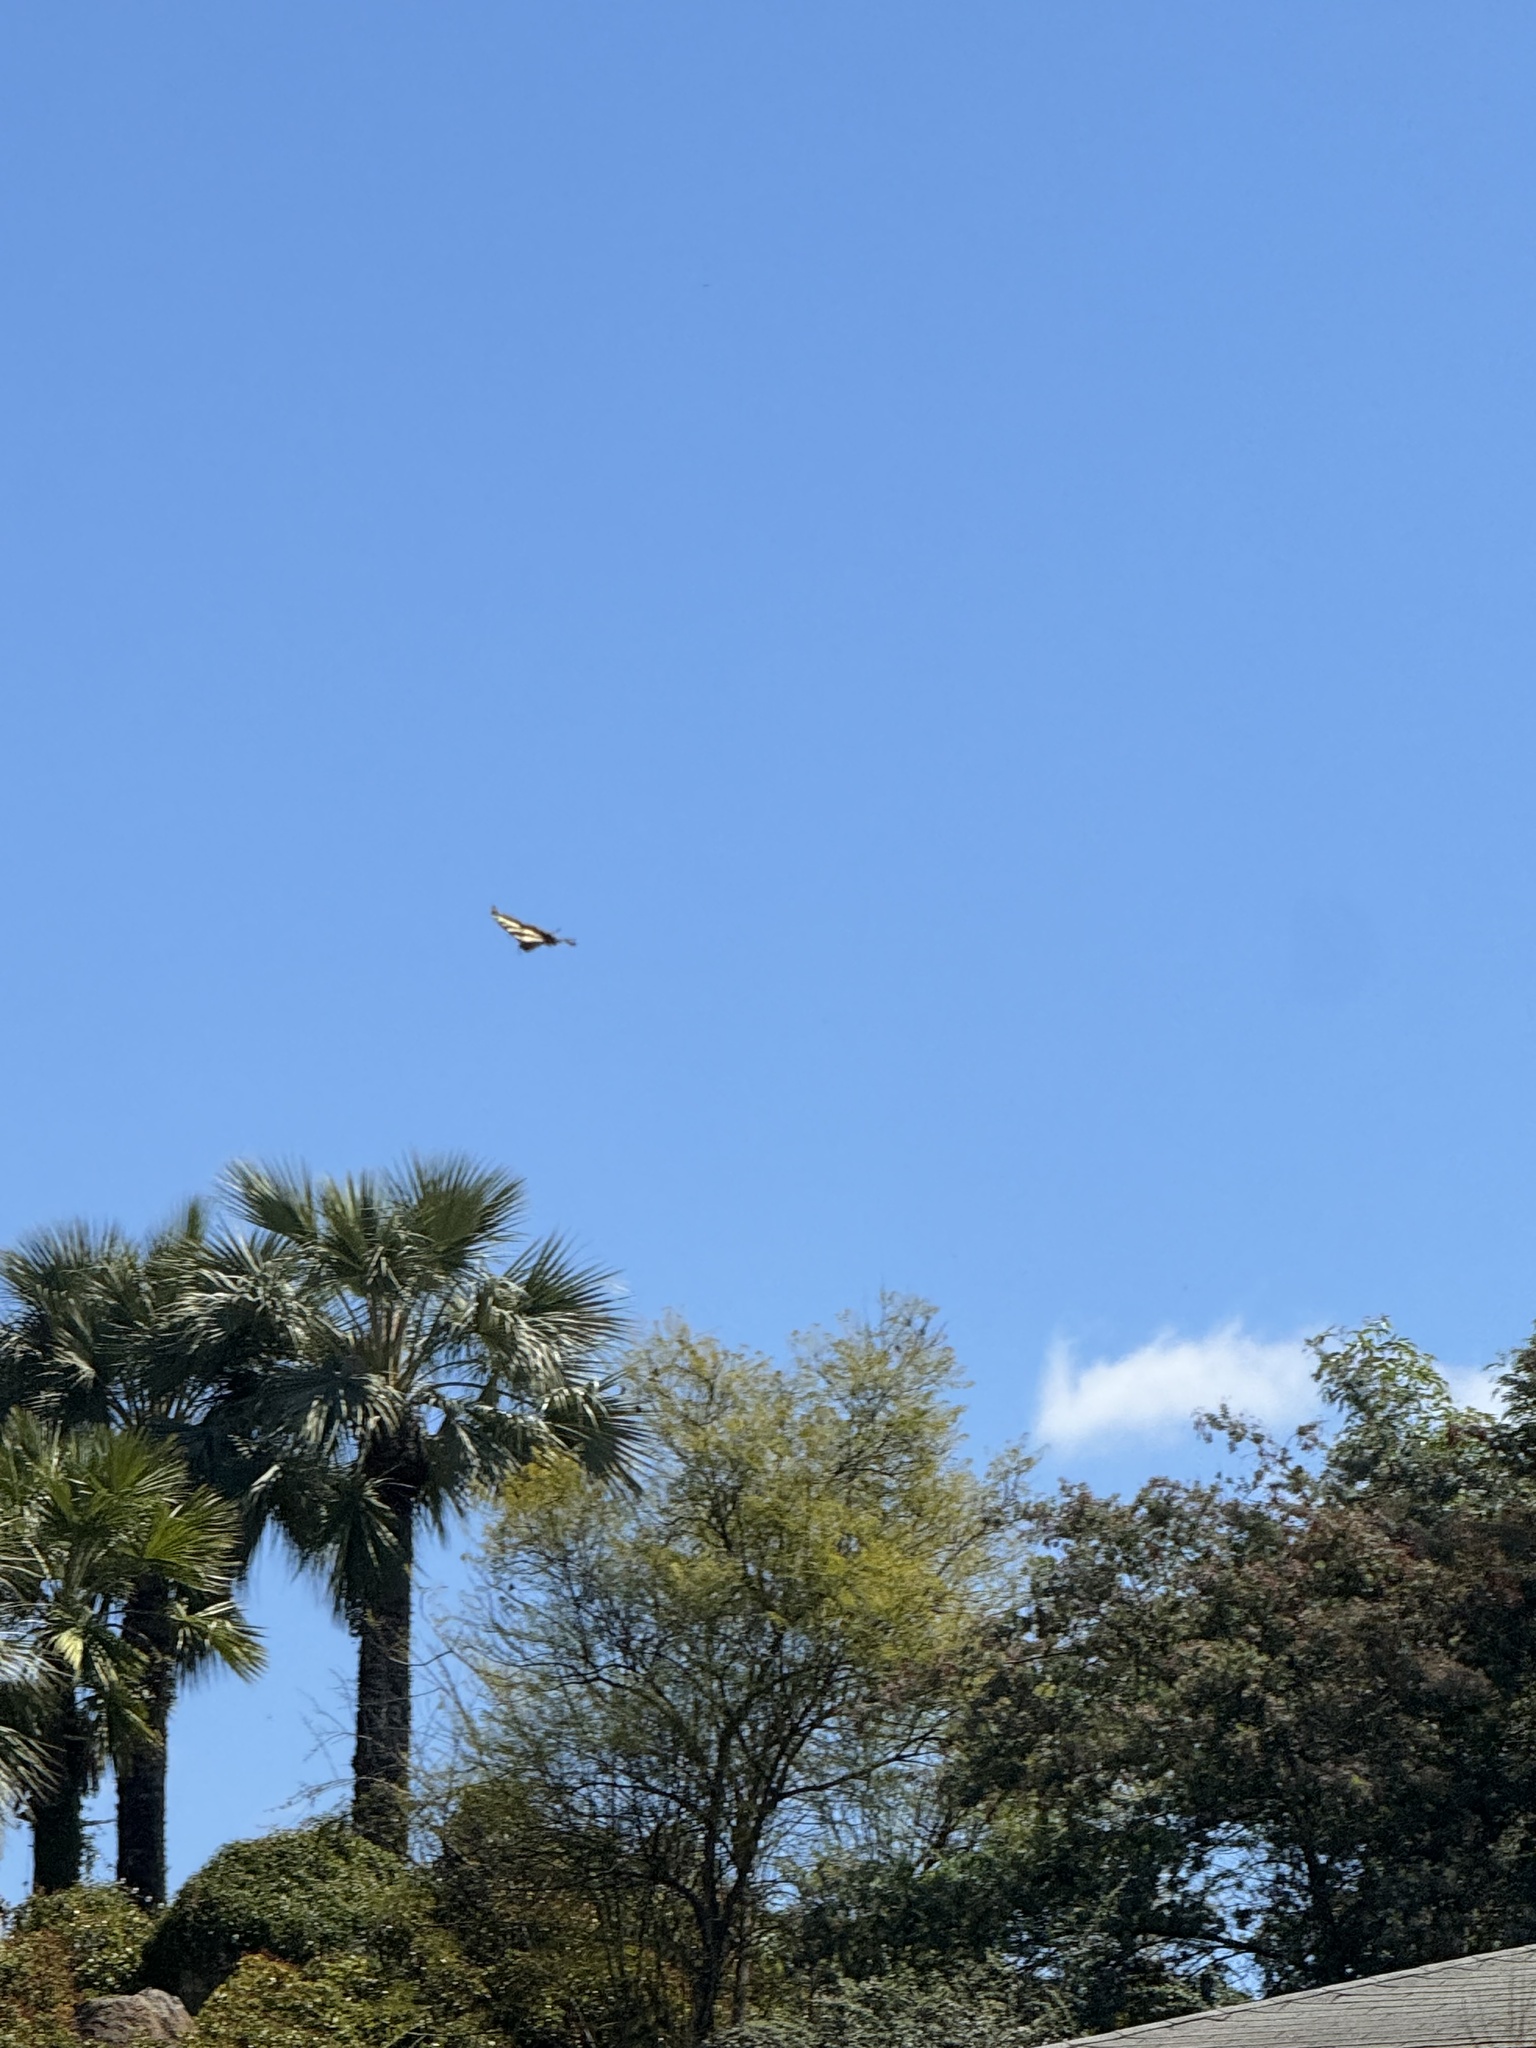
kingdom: Animalia
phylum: Arthropoda
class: Insecta
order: Lepidoptera
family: Papilionidae
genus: Papilio
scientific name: Papilio rutulus
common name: Western tiger swallowtail
